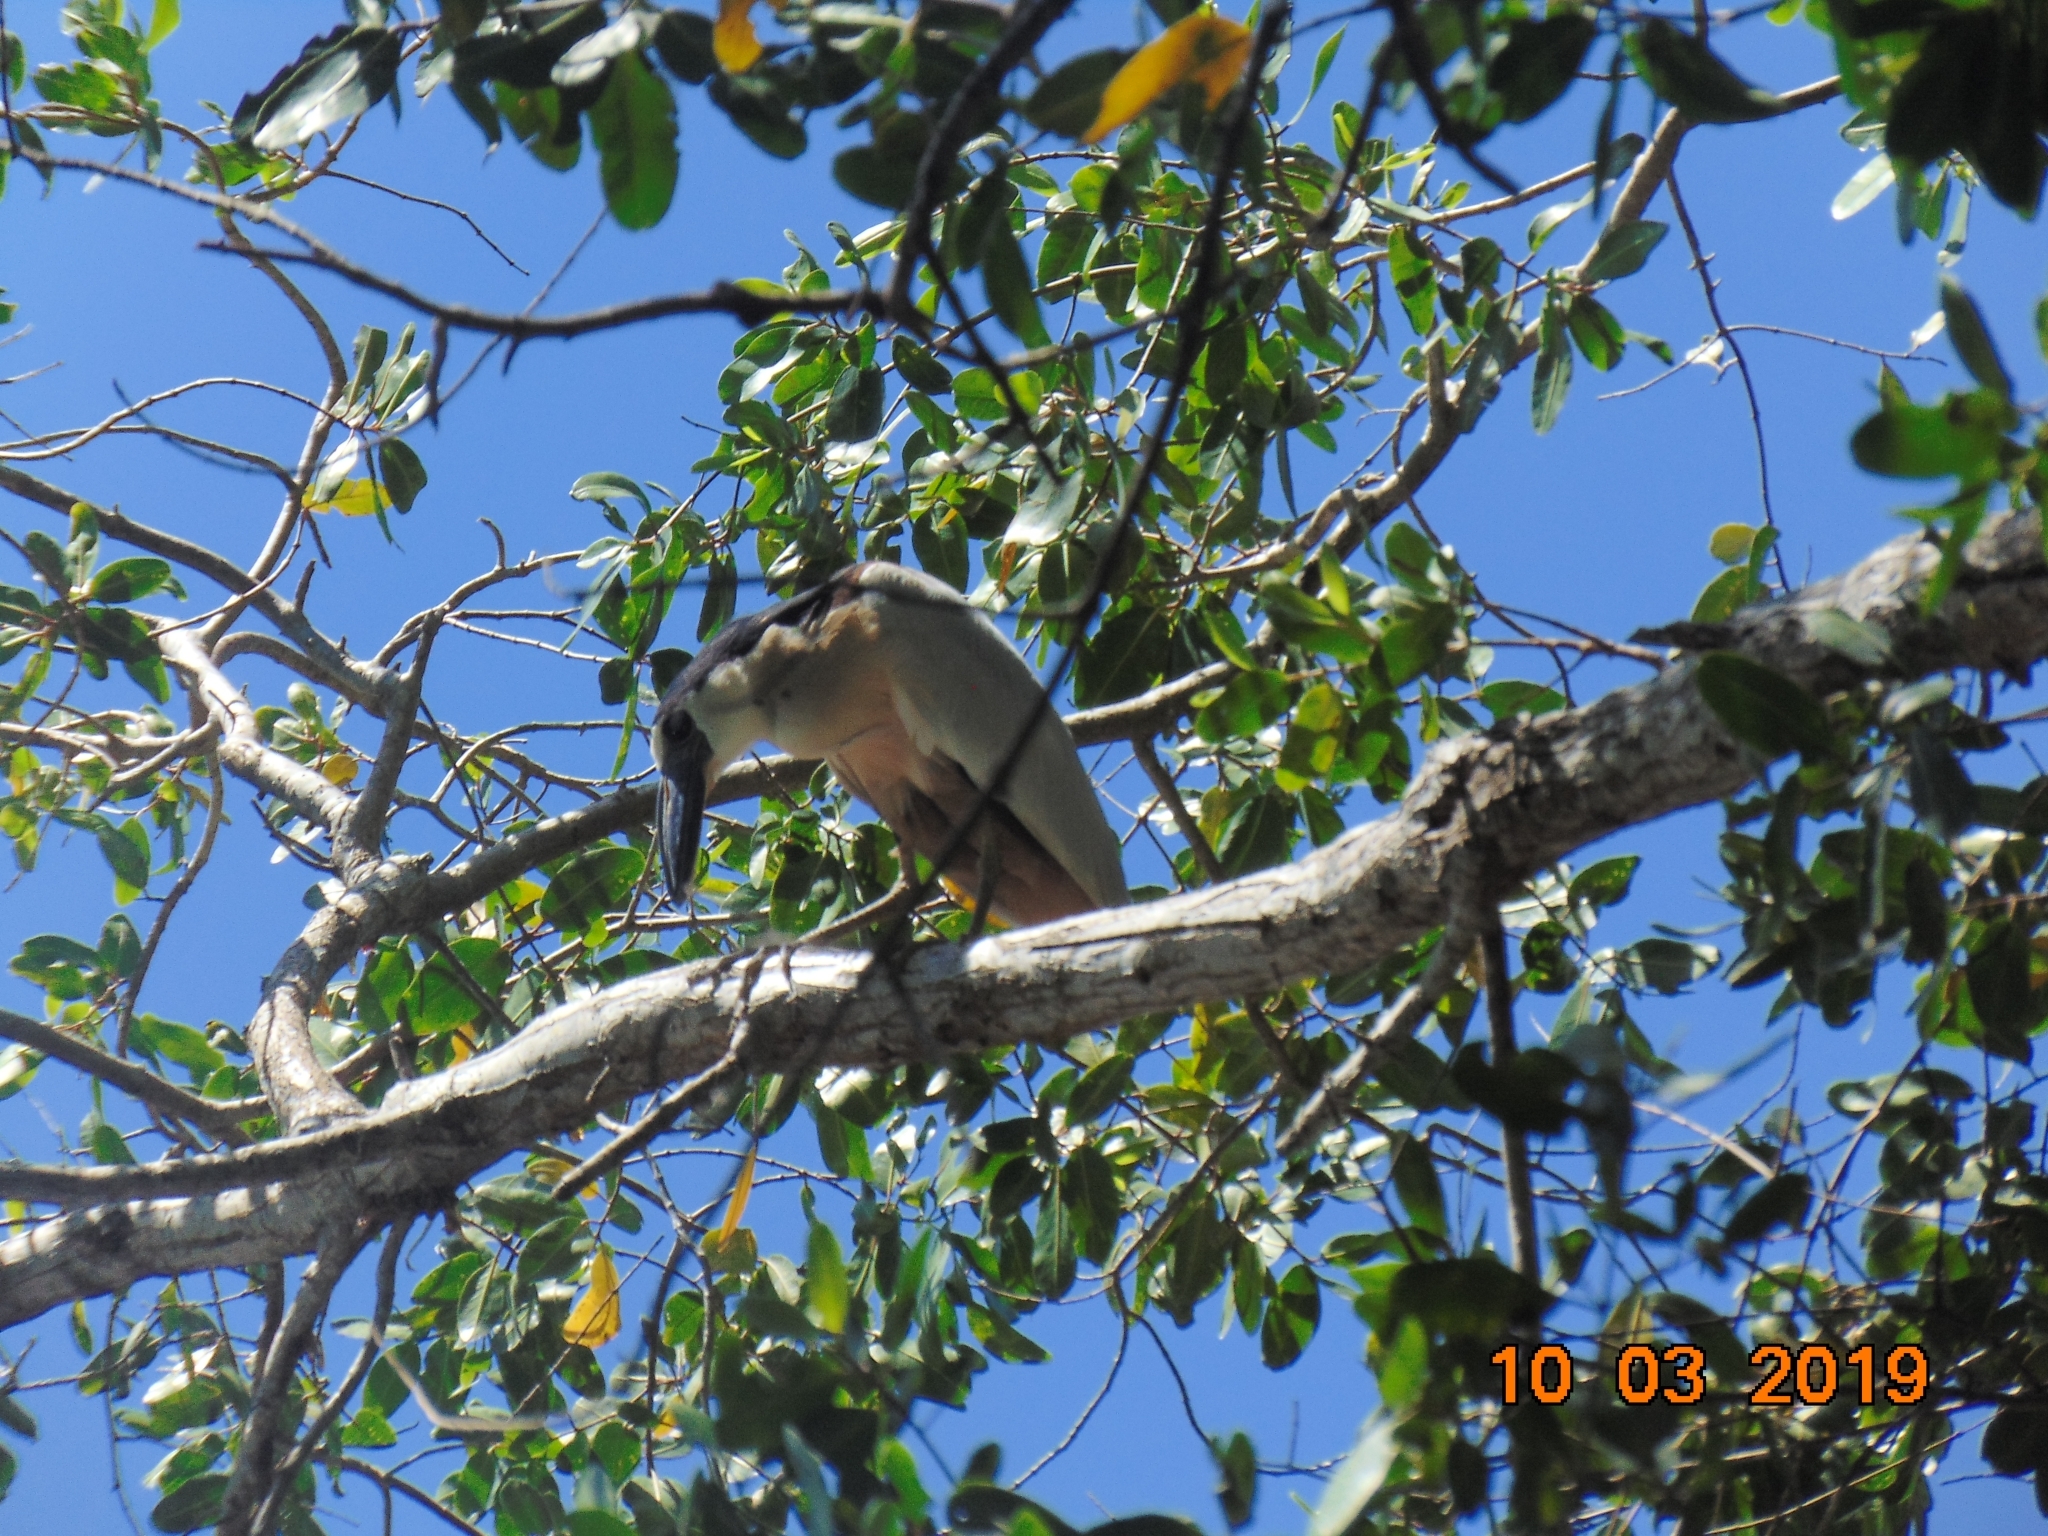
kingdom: Animalia
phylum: Chordata
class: Aves
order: Pelecaniformes
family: Ardeidae
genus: Cochlearius
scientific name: Cochlearius cochlearius
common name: Boat-billed heron
